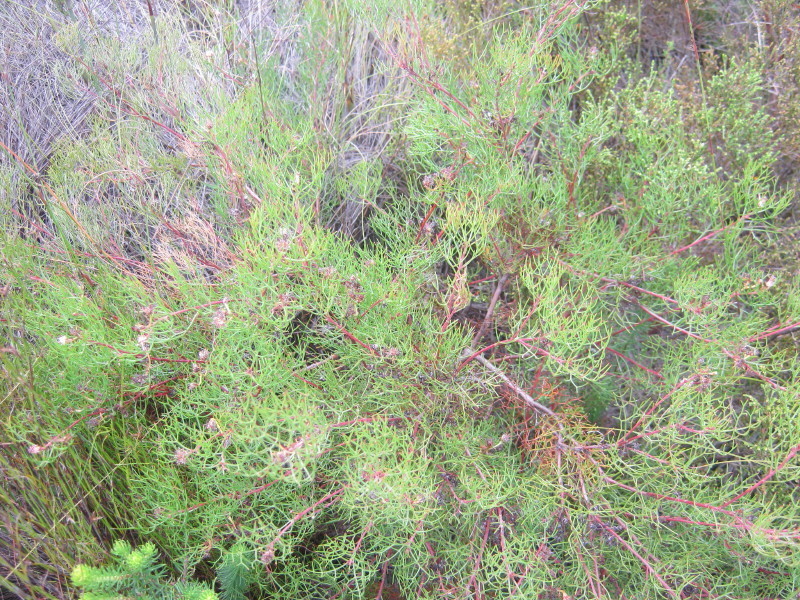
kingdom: Plantae
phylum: Tracheophyta
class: Magnoliopsida
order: Proteales
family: Proteaceae
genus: Serruria
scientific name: Serruria fasciflora
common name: Common pin spiderhead
